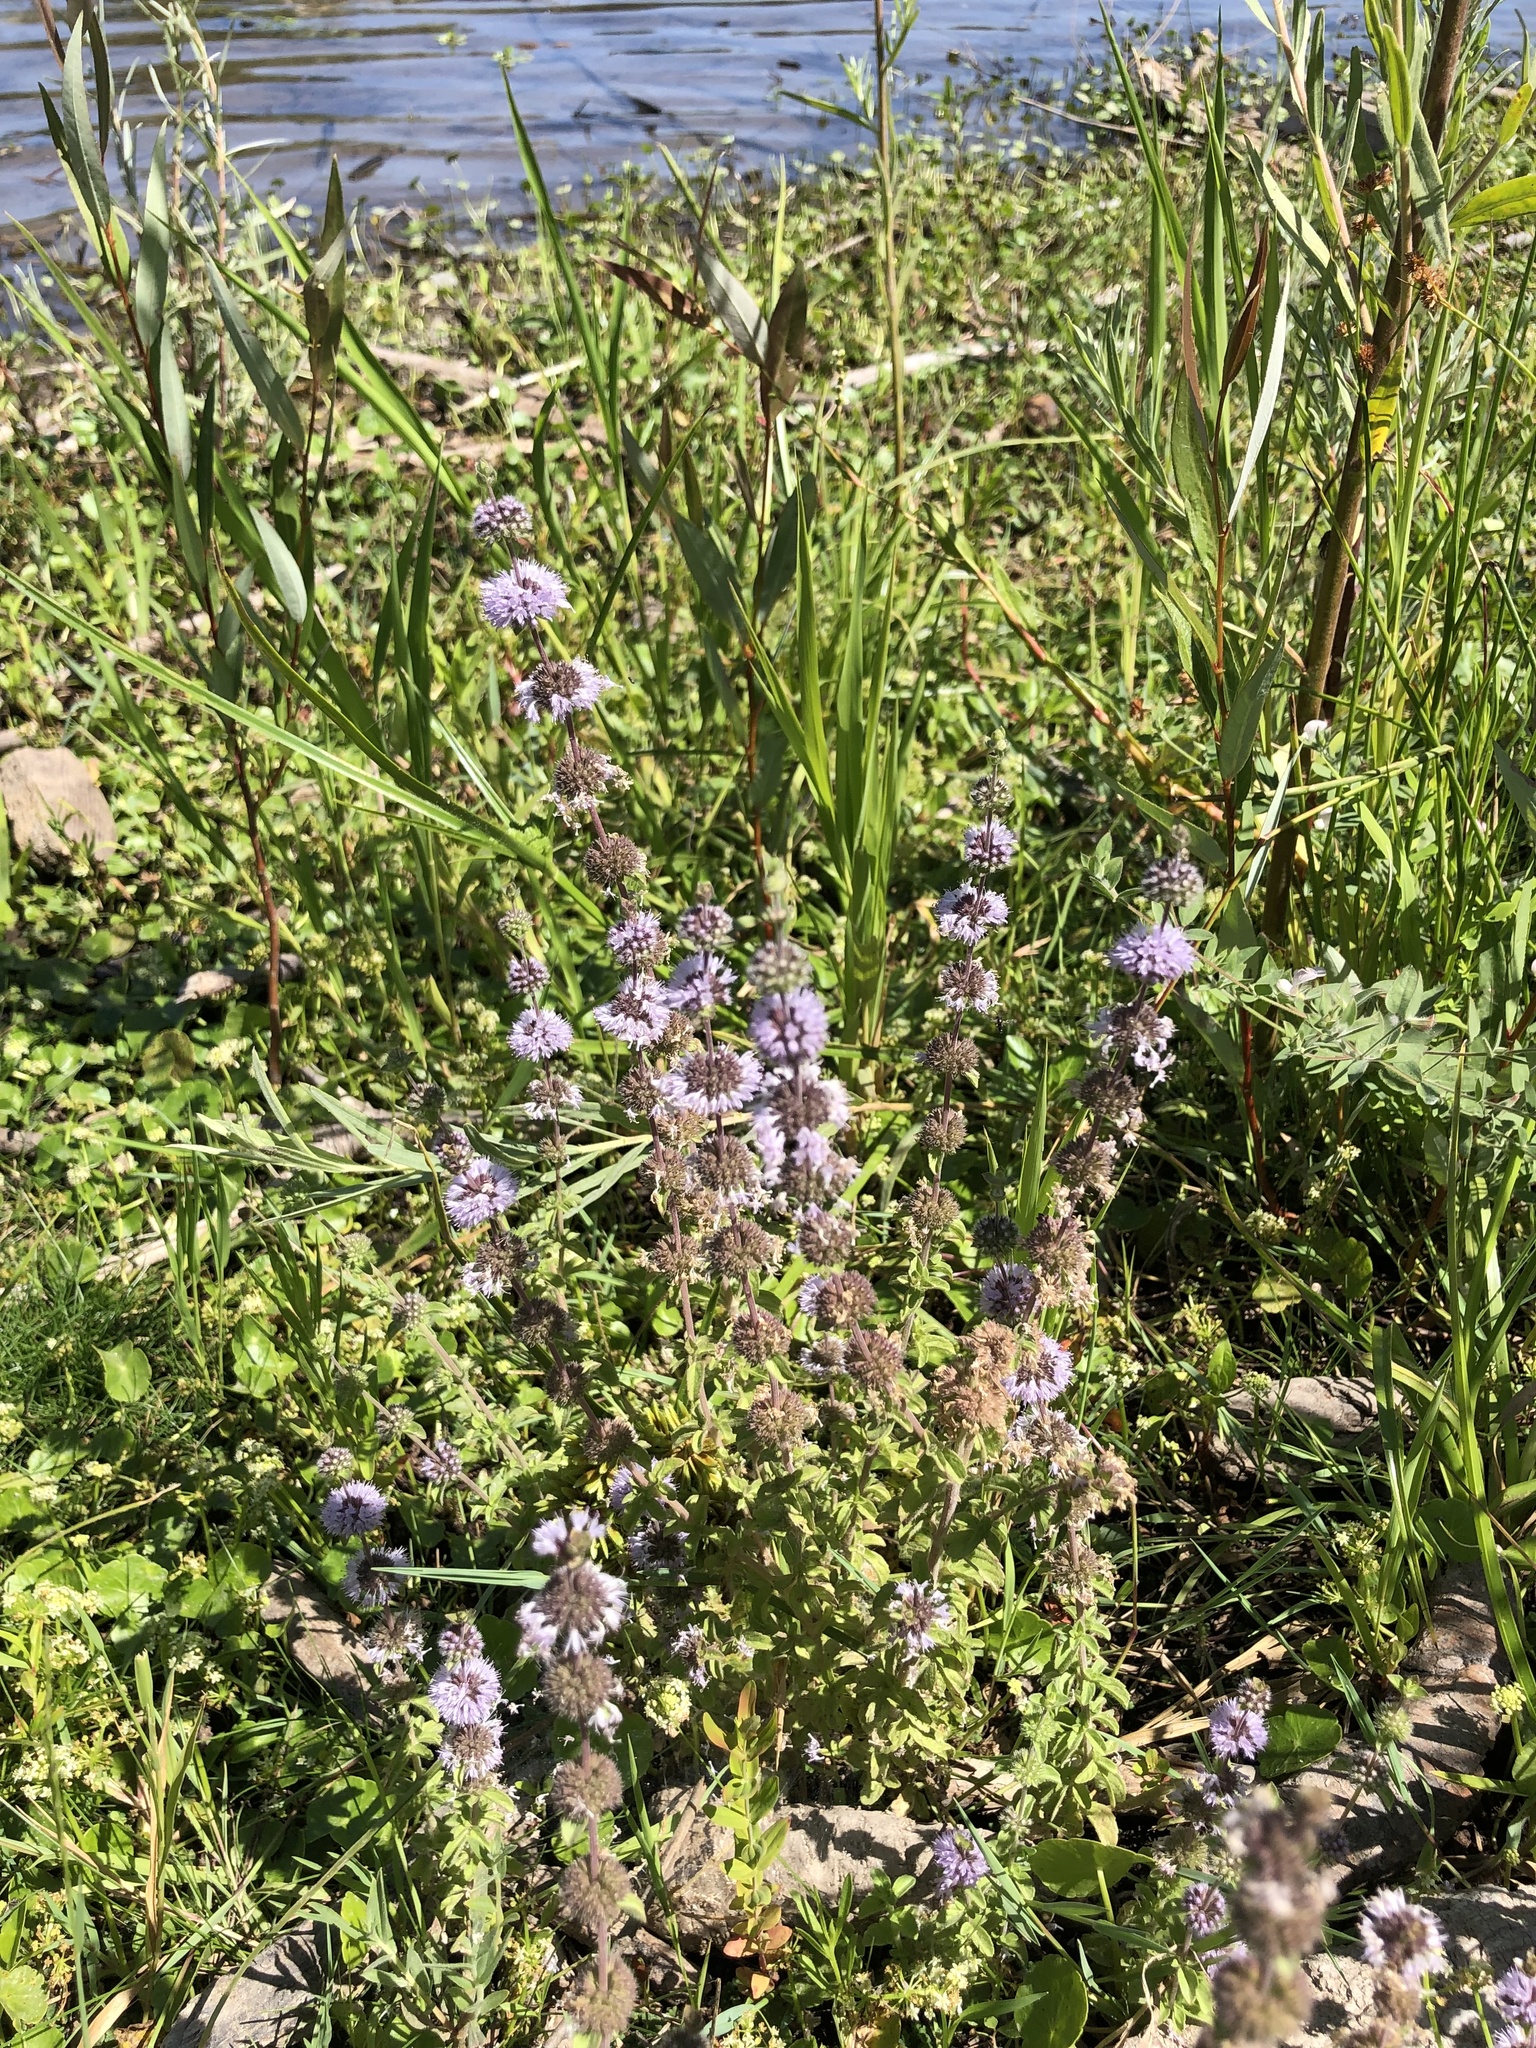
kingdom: Plantae
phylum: Tracheophyta
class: Magnoliopsida
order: Lamiales
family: Lamiaceae
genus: Mentha
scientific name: Mentha pulegium
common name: Pennyroyal
